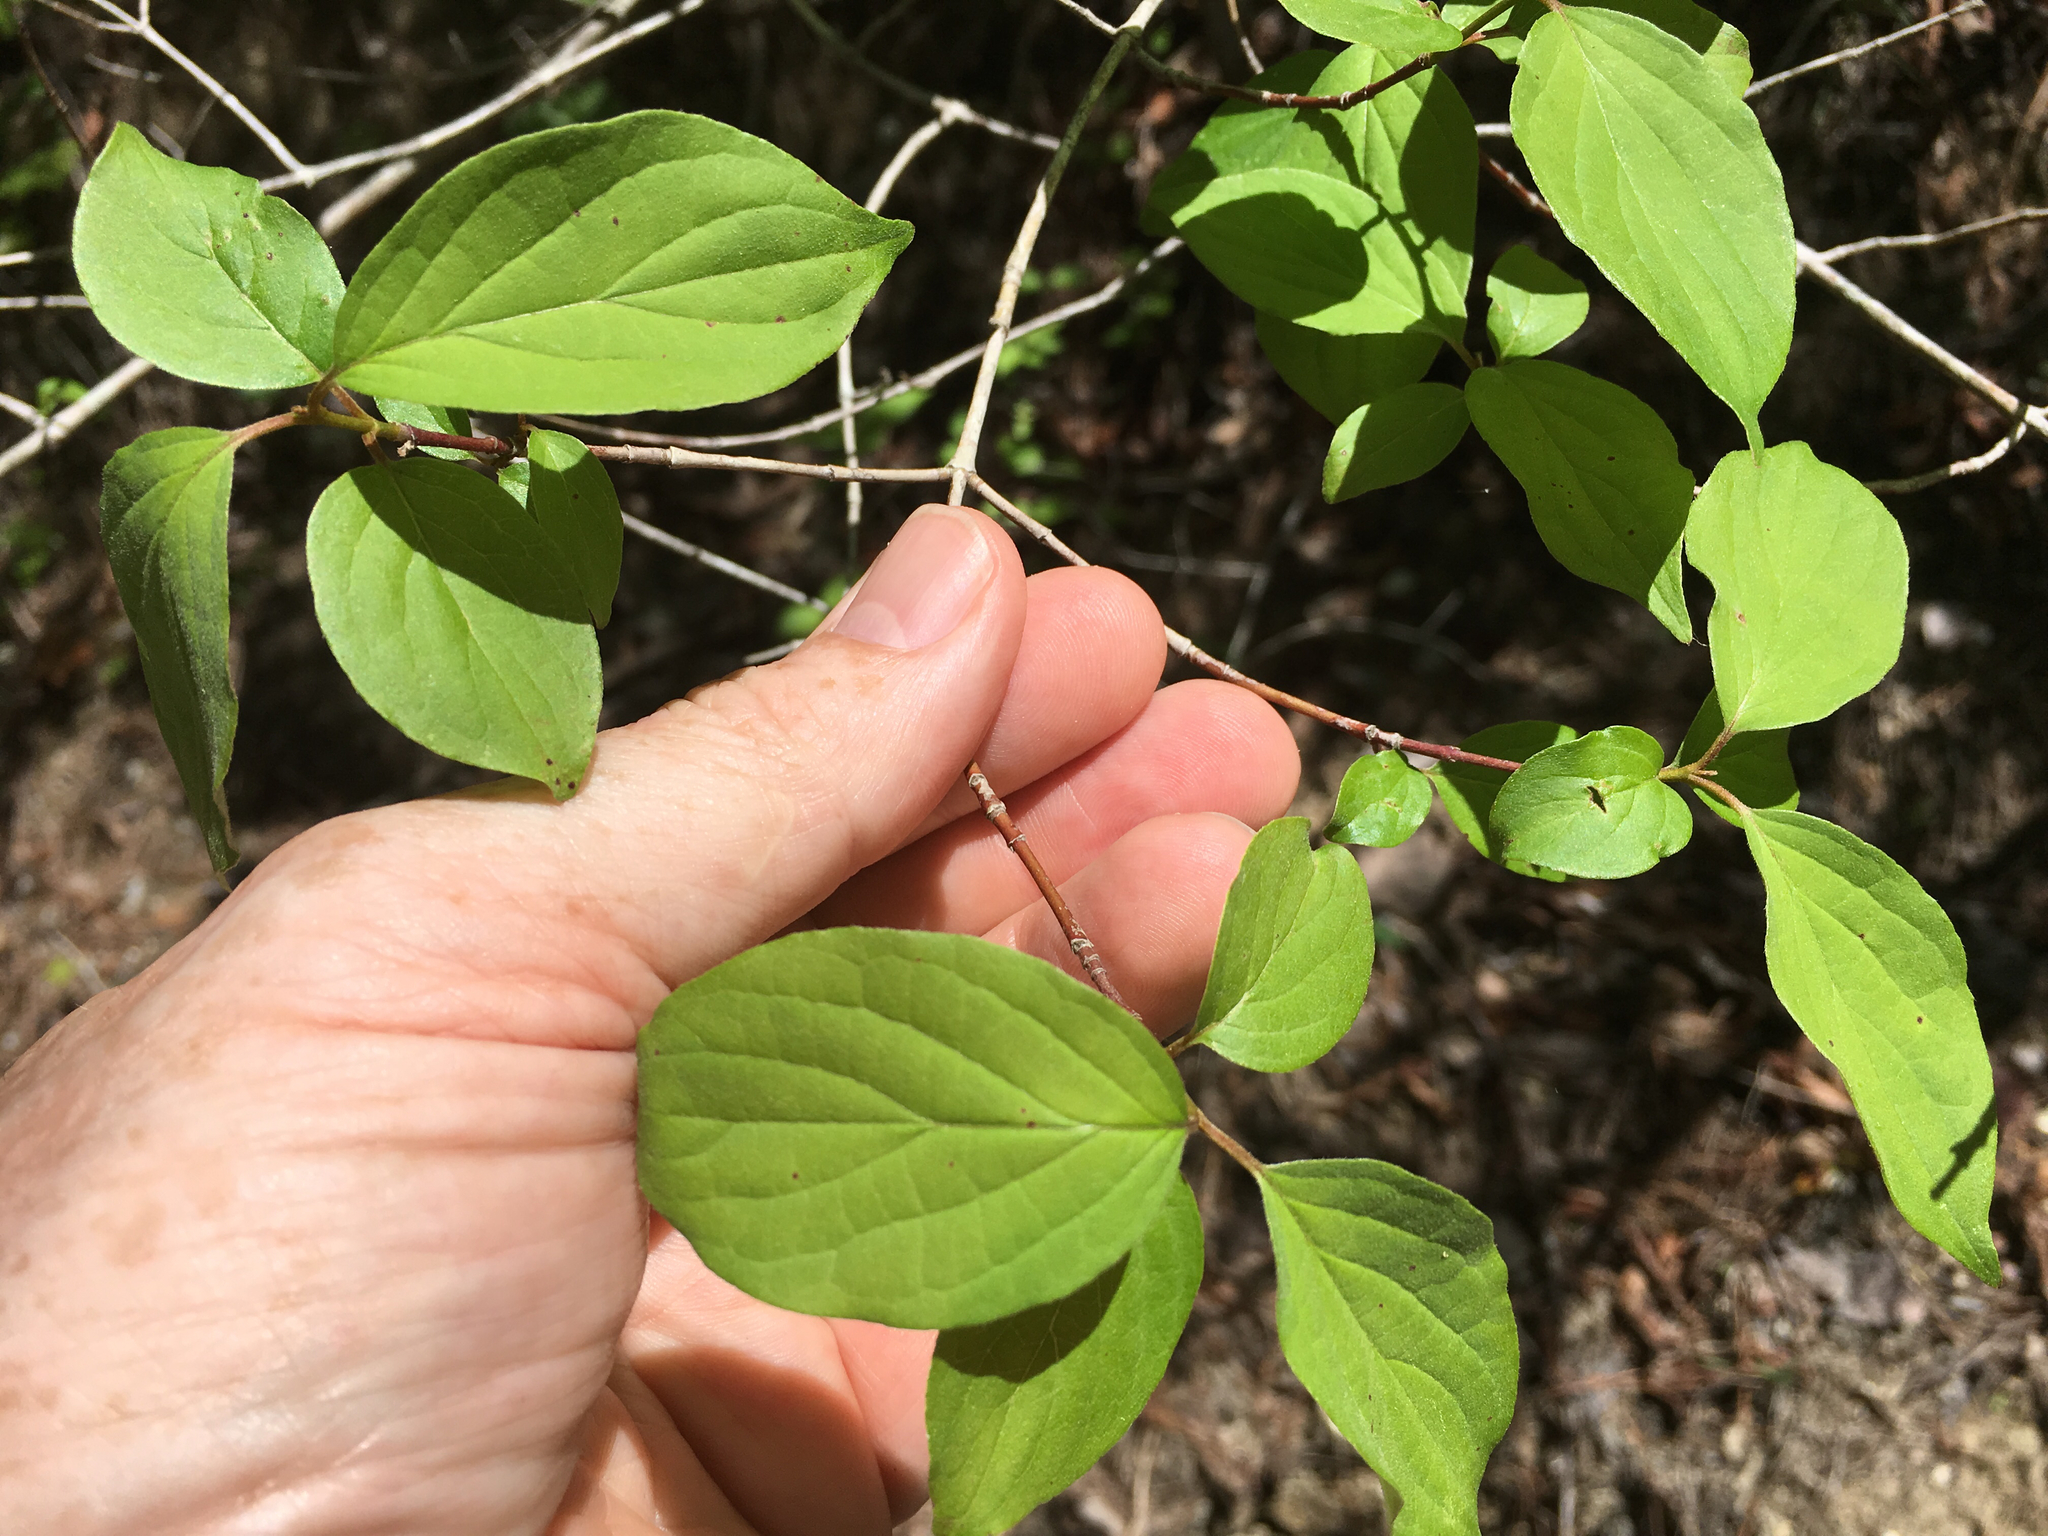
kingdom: Plantae
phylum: Tracheophyta
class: Magnoliopsida
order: Cornales
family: Cornaceae
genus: Cornus
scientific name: Cornus drummondii
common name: Rough-leaf dogwood
